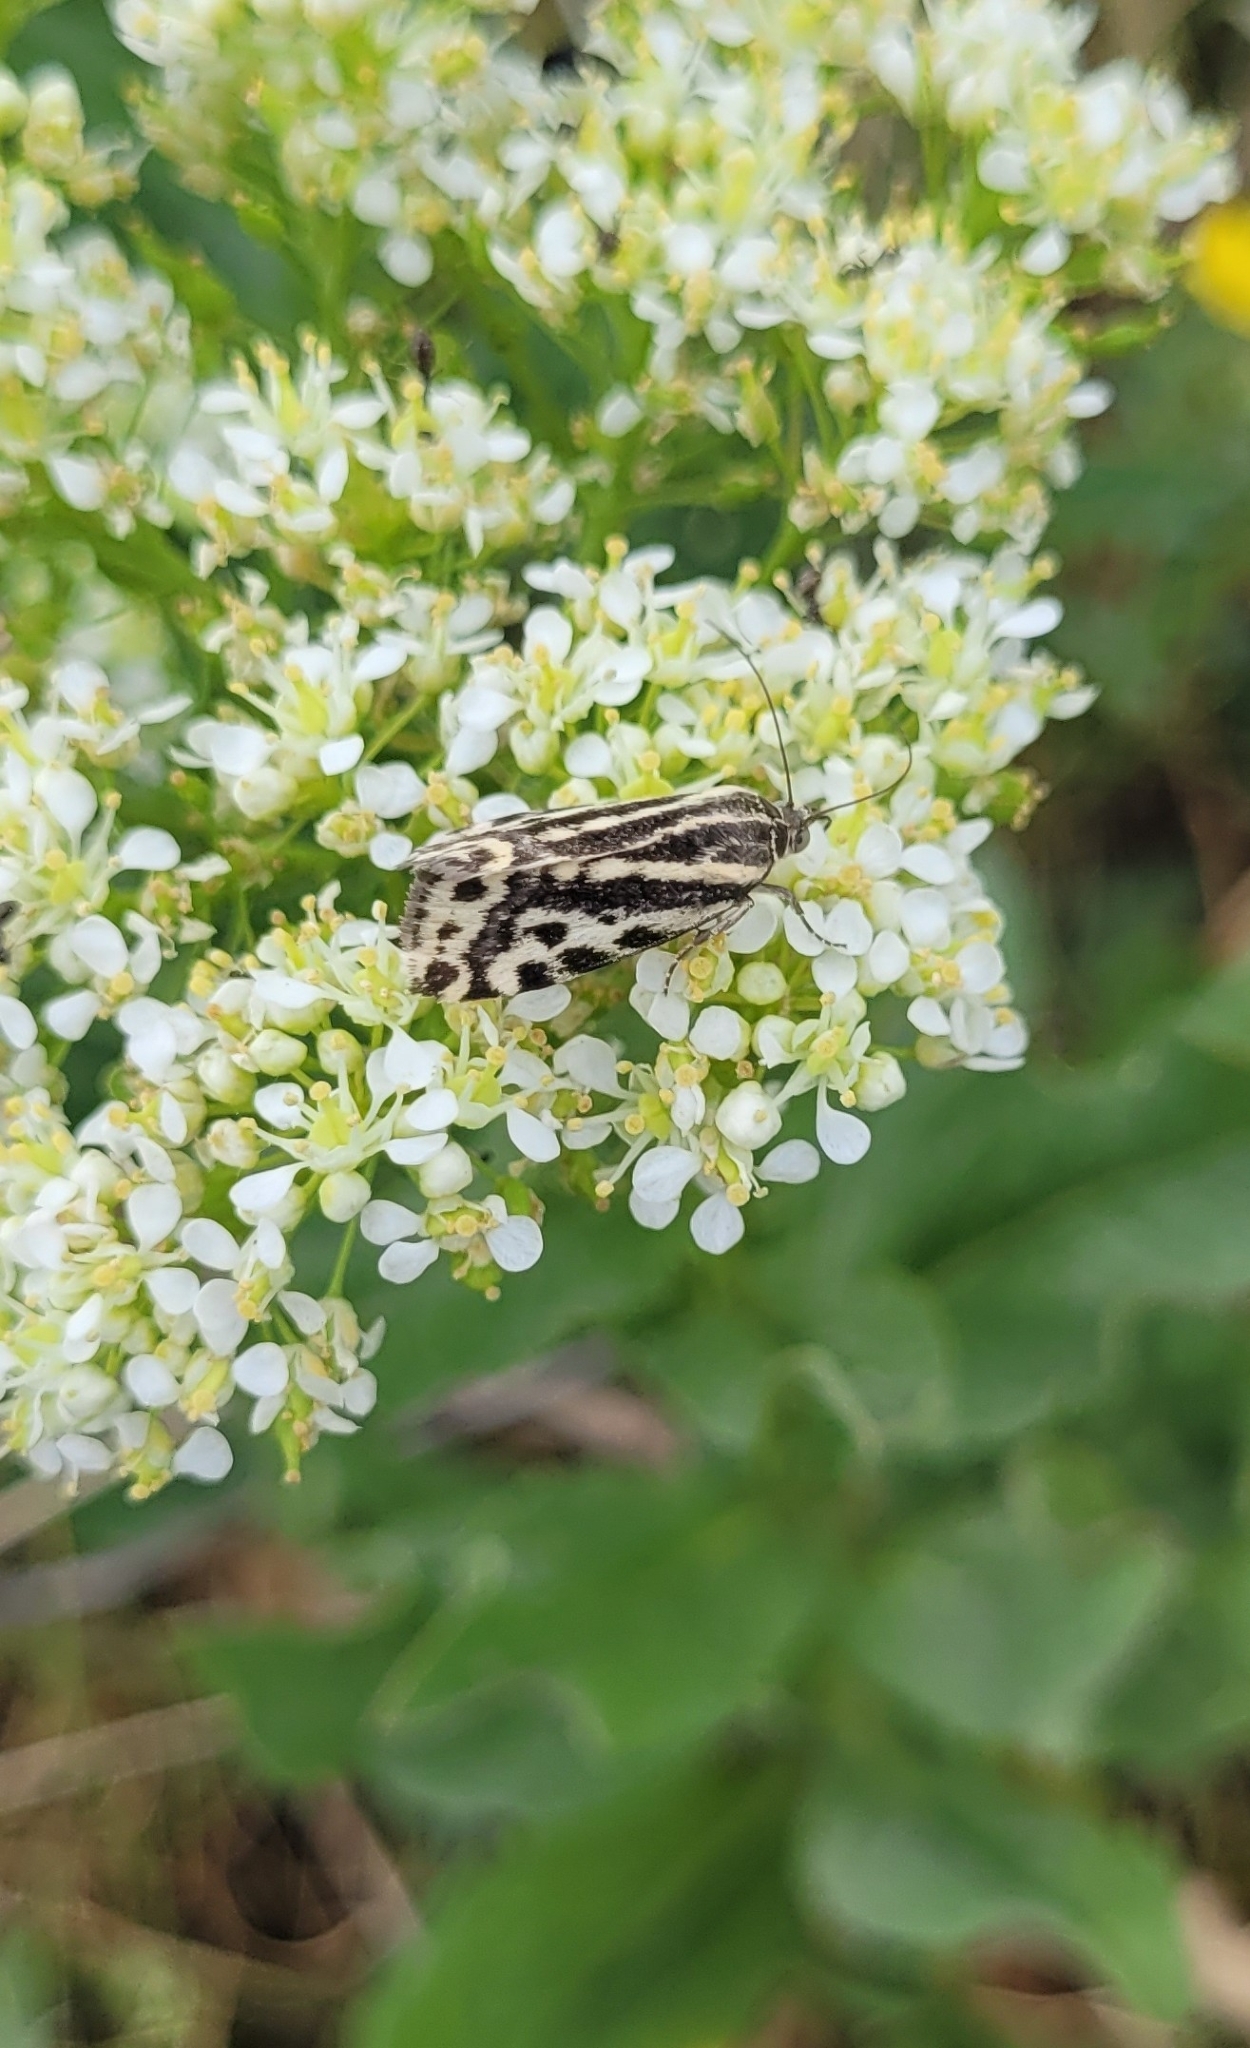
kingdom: Animalia
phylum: Arthropoda
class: Insecta
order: Lepidoptera
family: Noctuidae
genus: Acontia
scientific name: Acontia trabealis
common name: Spotted sulphur
